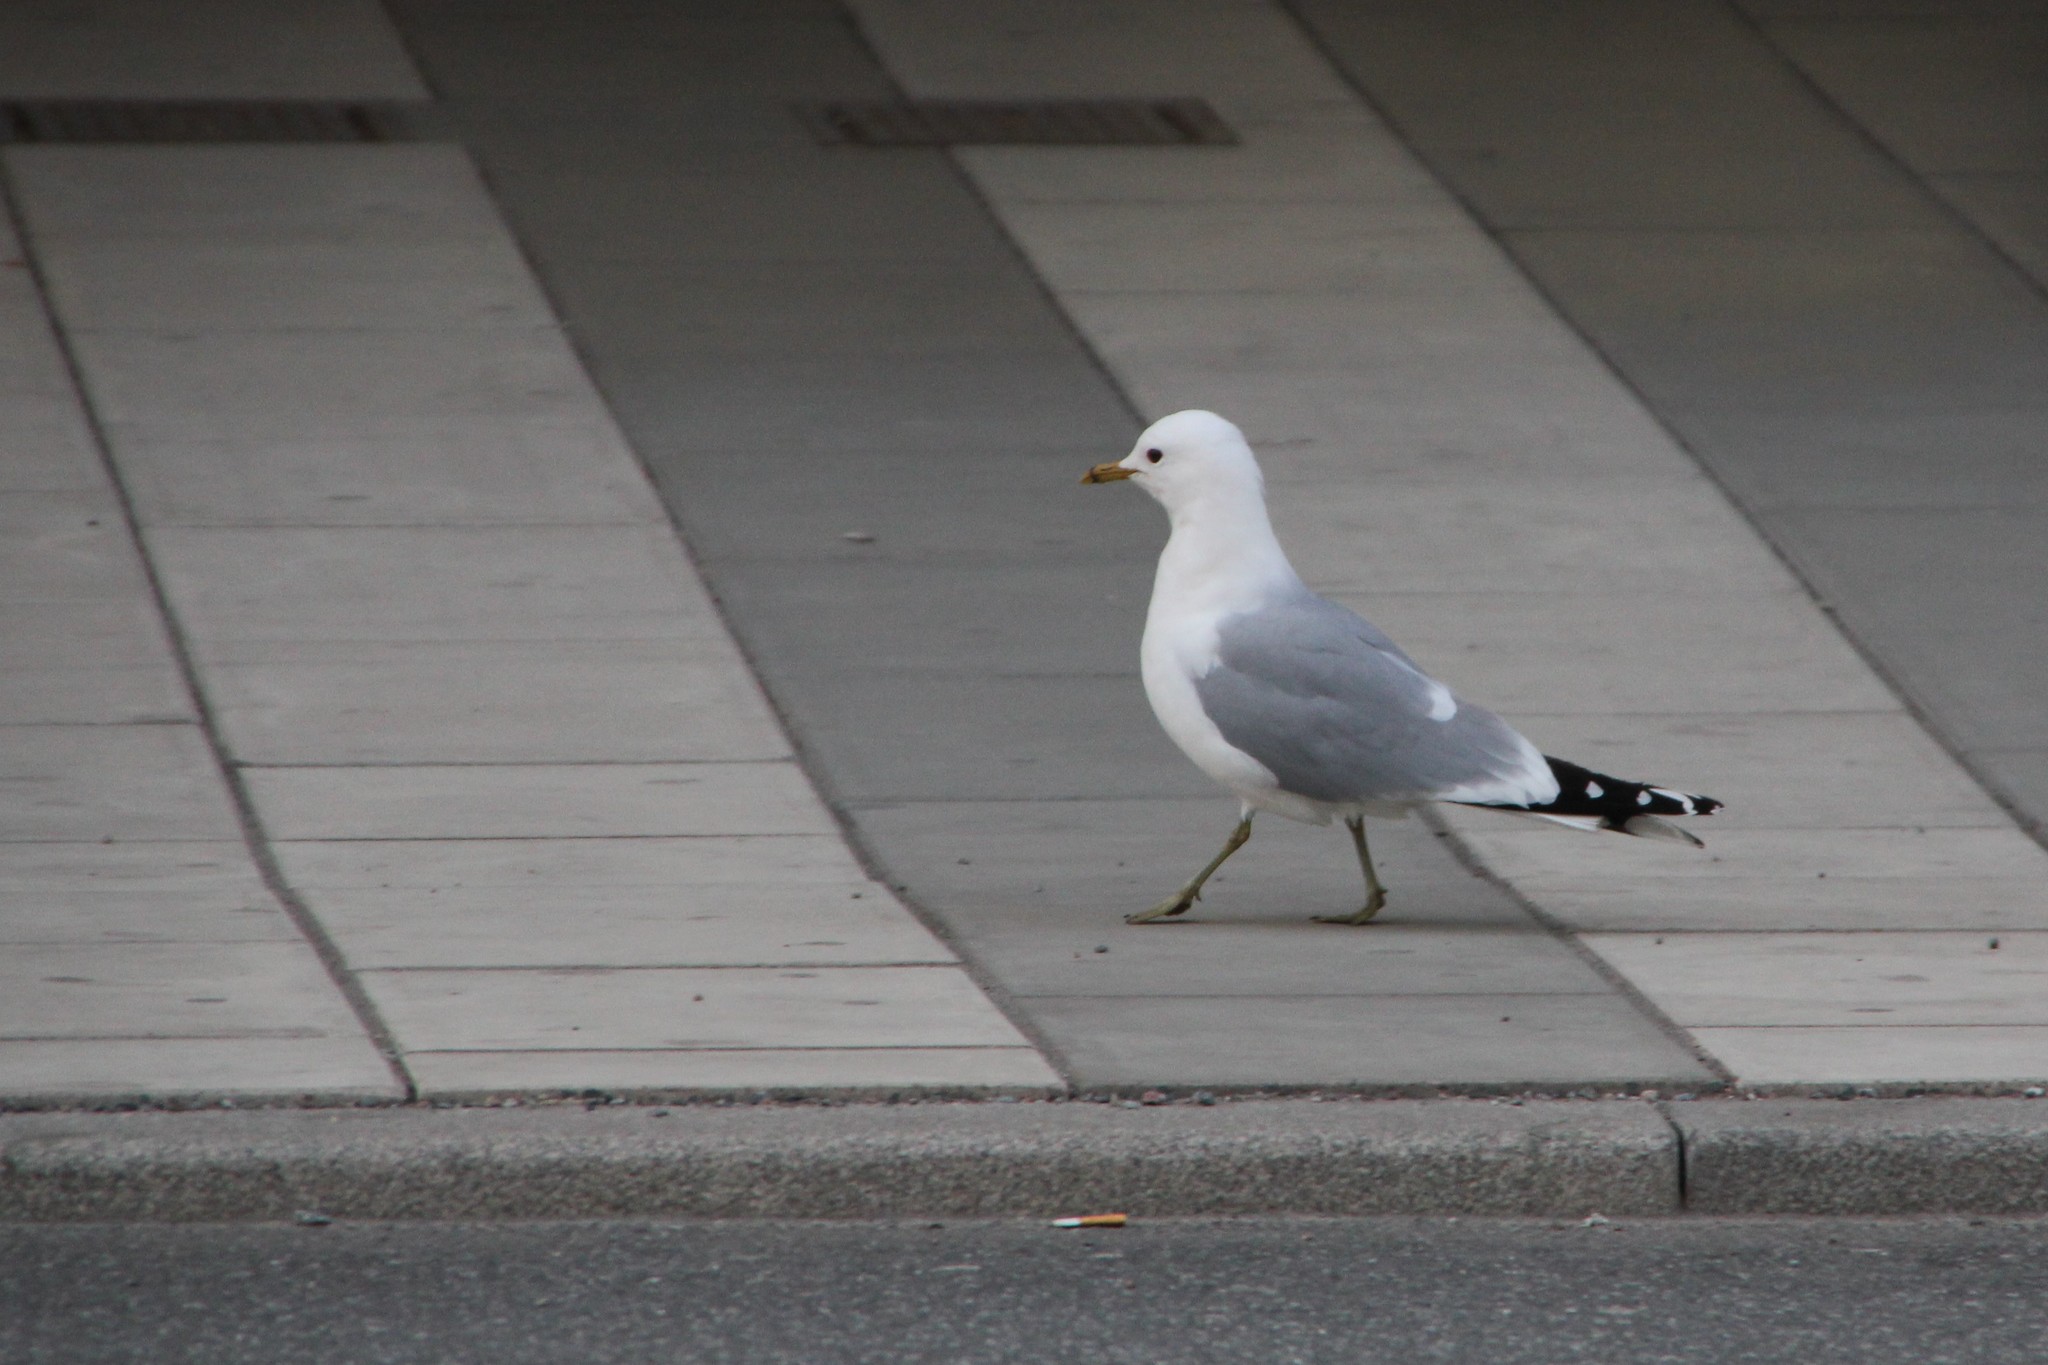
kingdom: Animalia
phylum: Chordata
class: Aves
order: Charadriiformes
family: Laridae
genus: Larus
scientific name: Larus canus
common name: Mew gull
